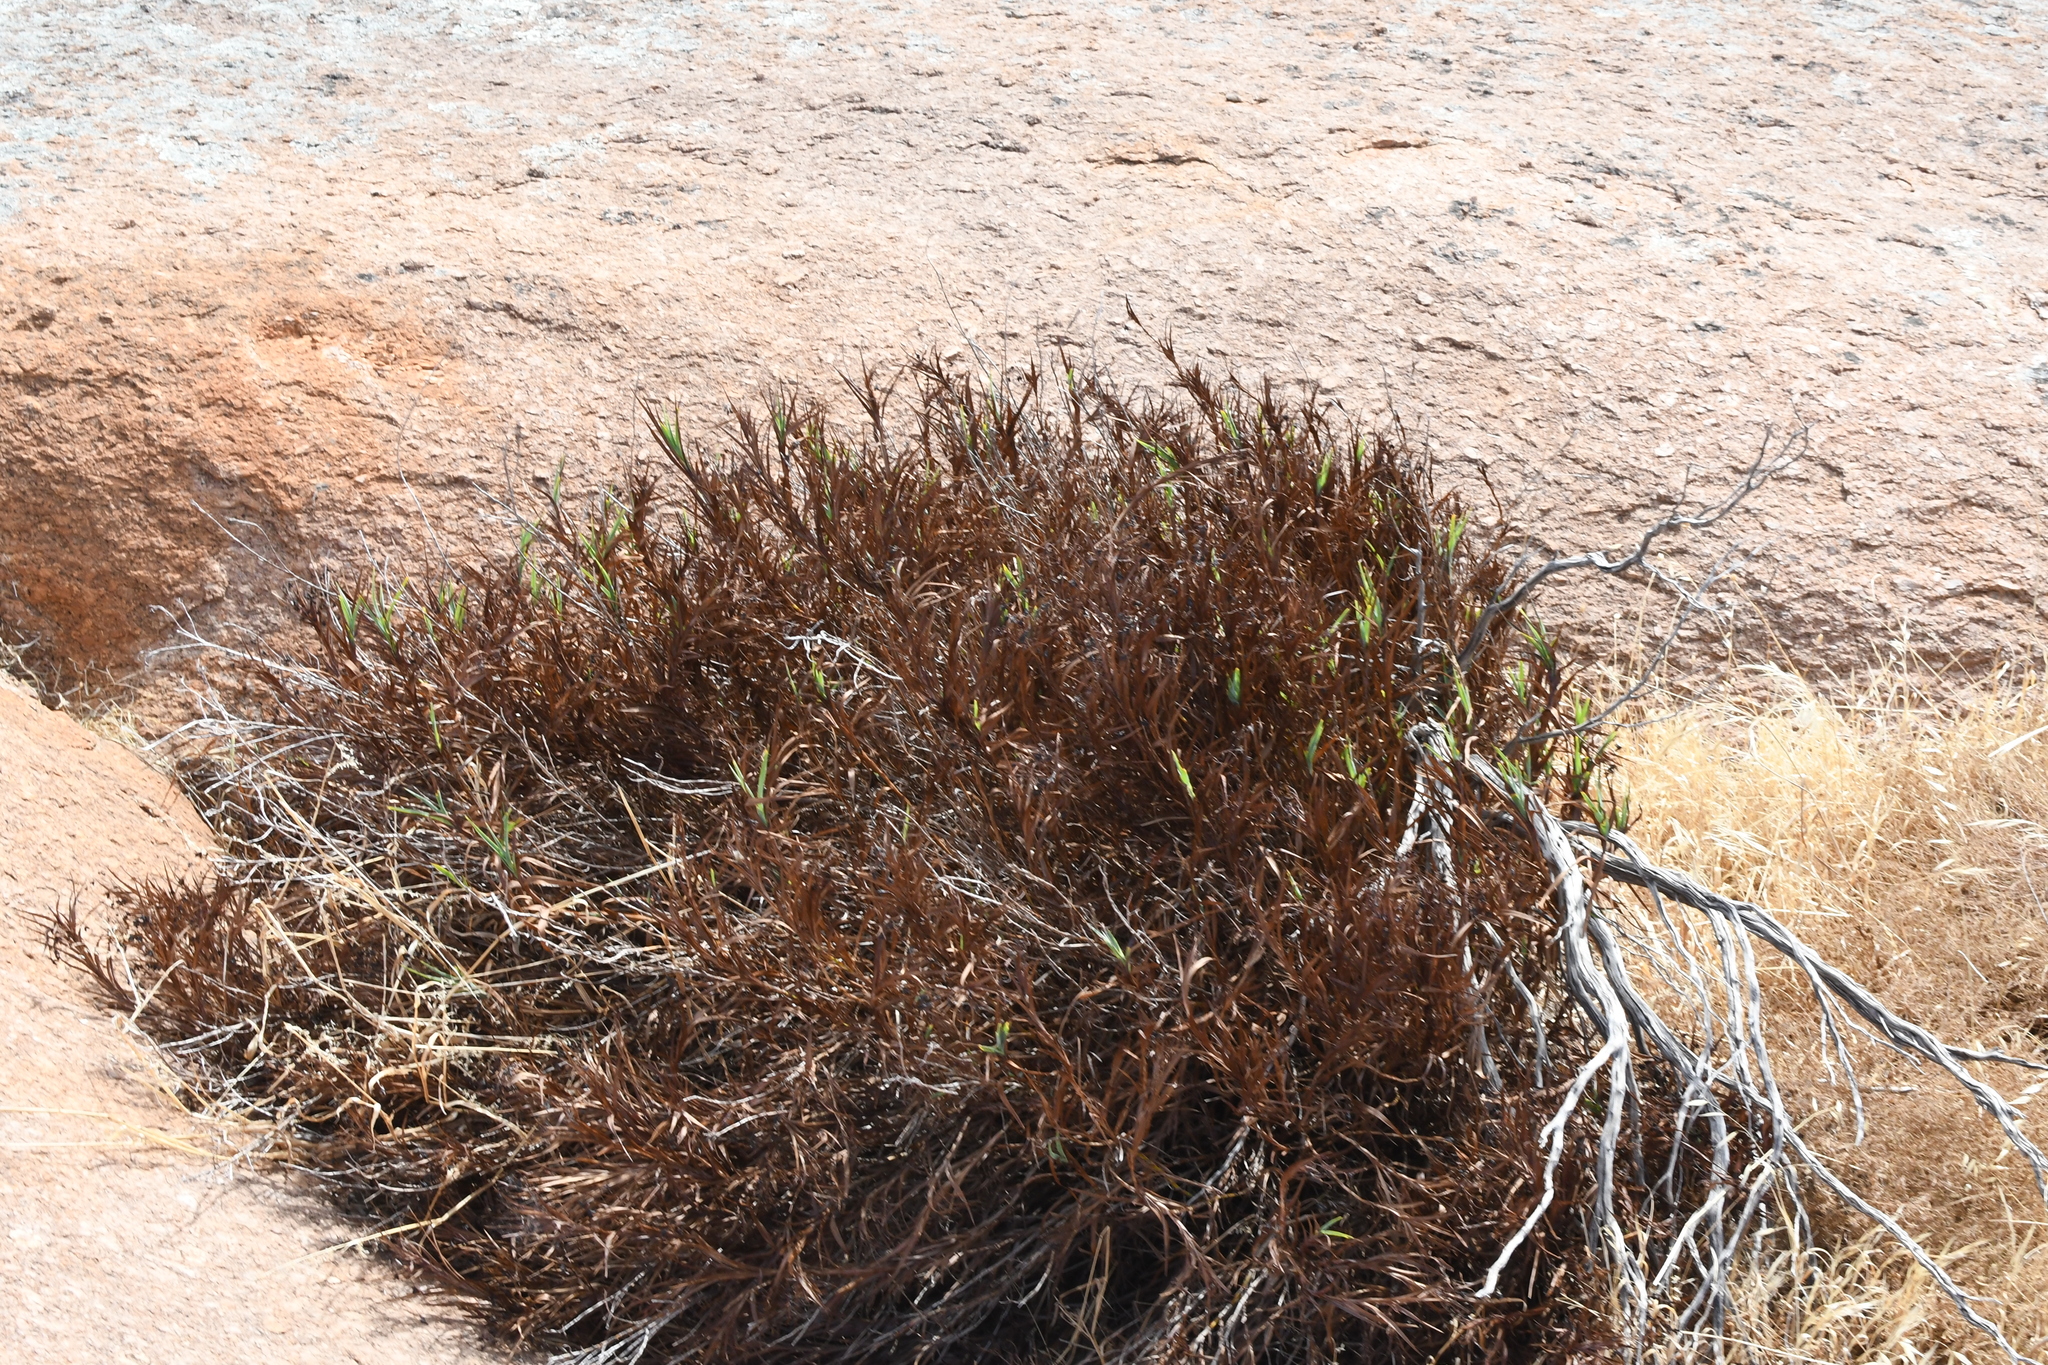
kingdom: Plantae
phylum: Tracheophyta
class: Liliopsida
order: Asparagales
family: Asphodelaceae
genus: Stypandra
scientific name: Stypandra glauca
